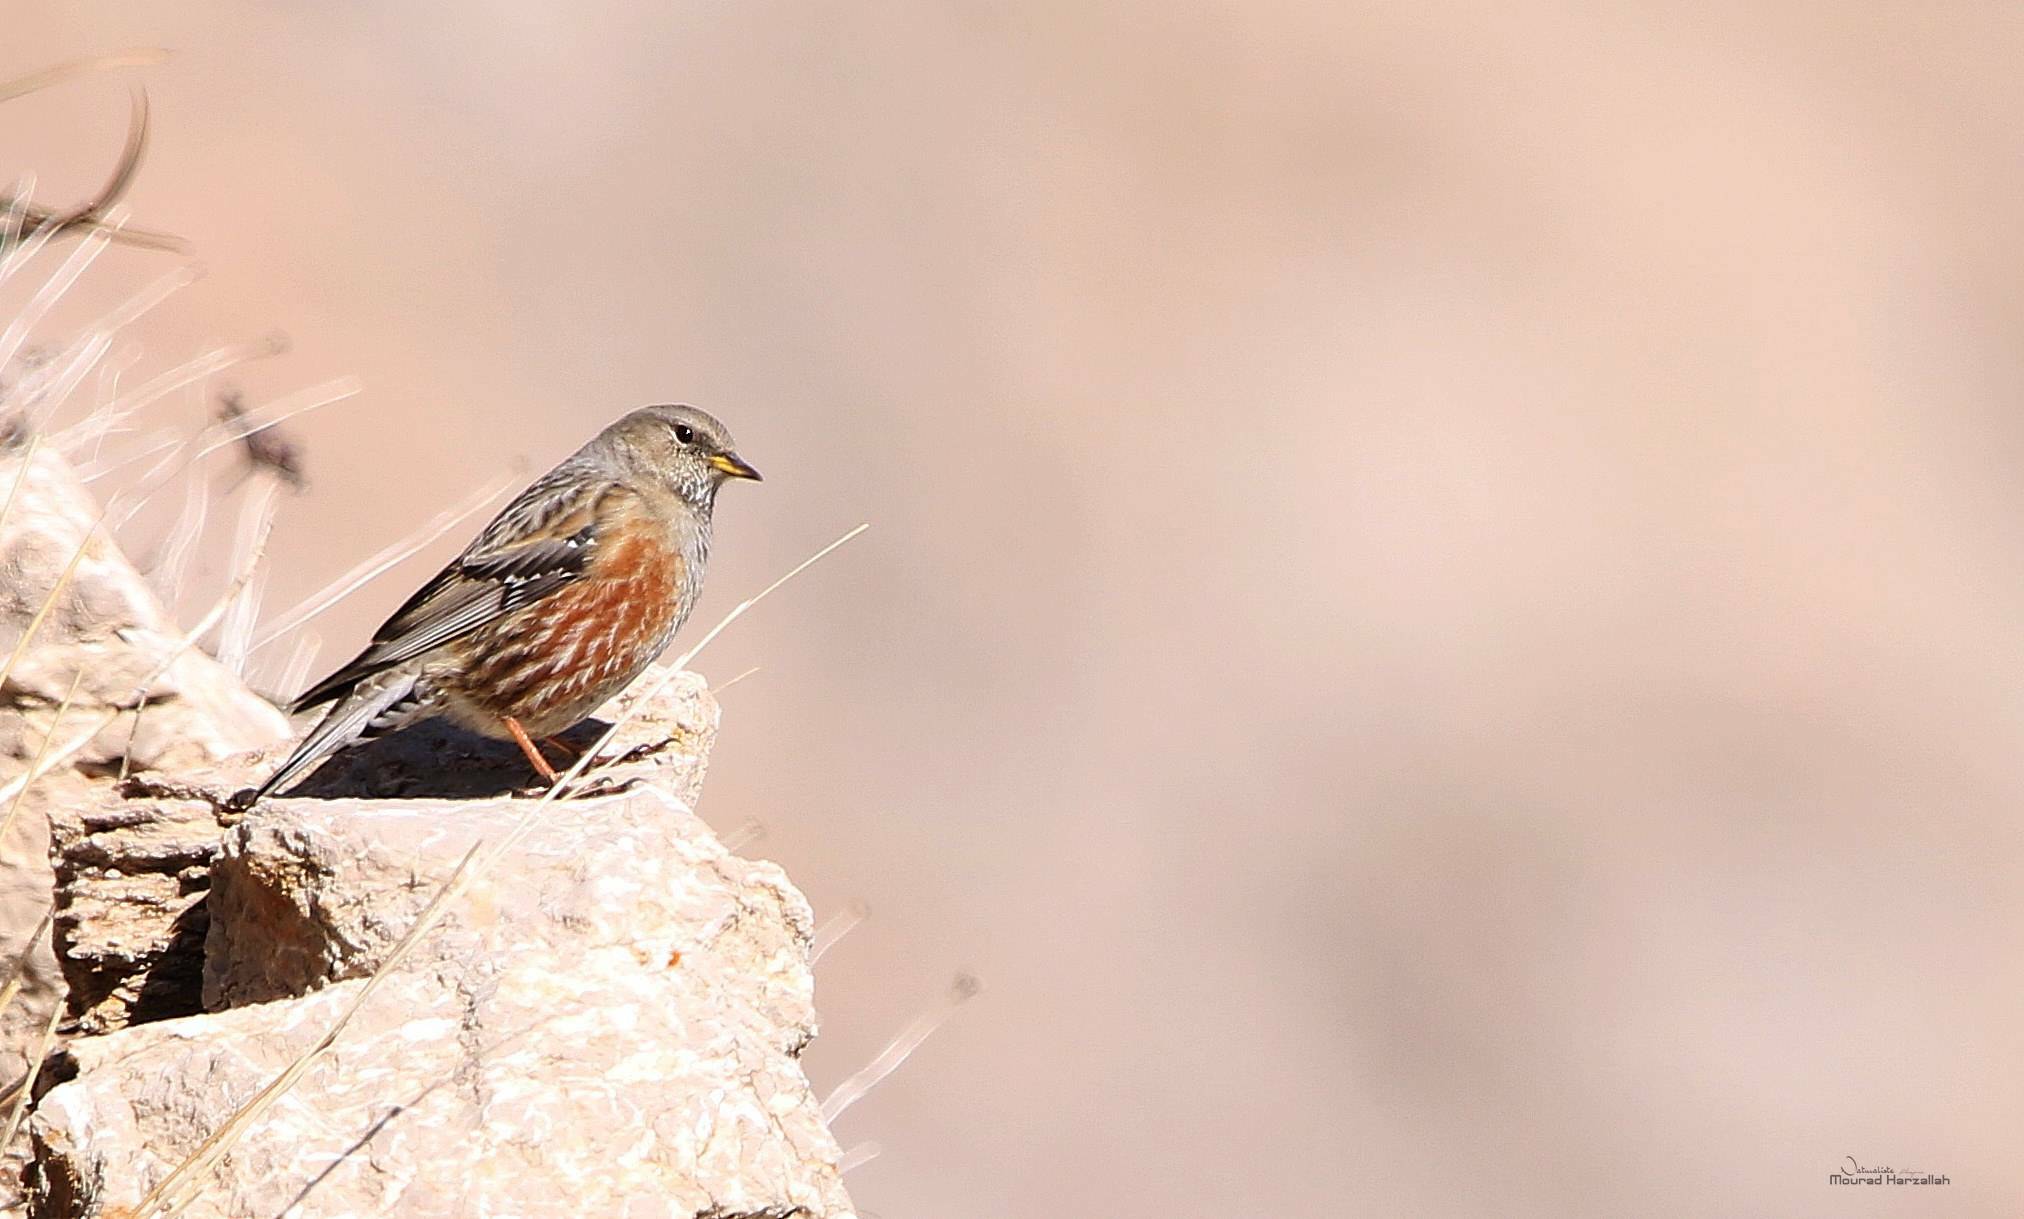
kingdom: Animalia
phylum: Chordata
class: Aves
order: Passeriformes
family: Prunellidae
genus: Prunella
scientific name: Prunella collaris
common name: Alpine accentor
